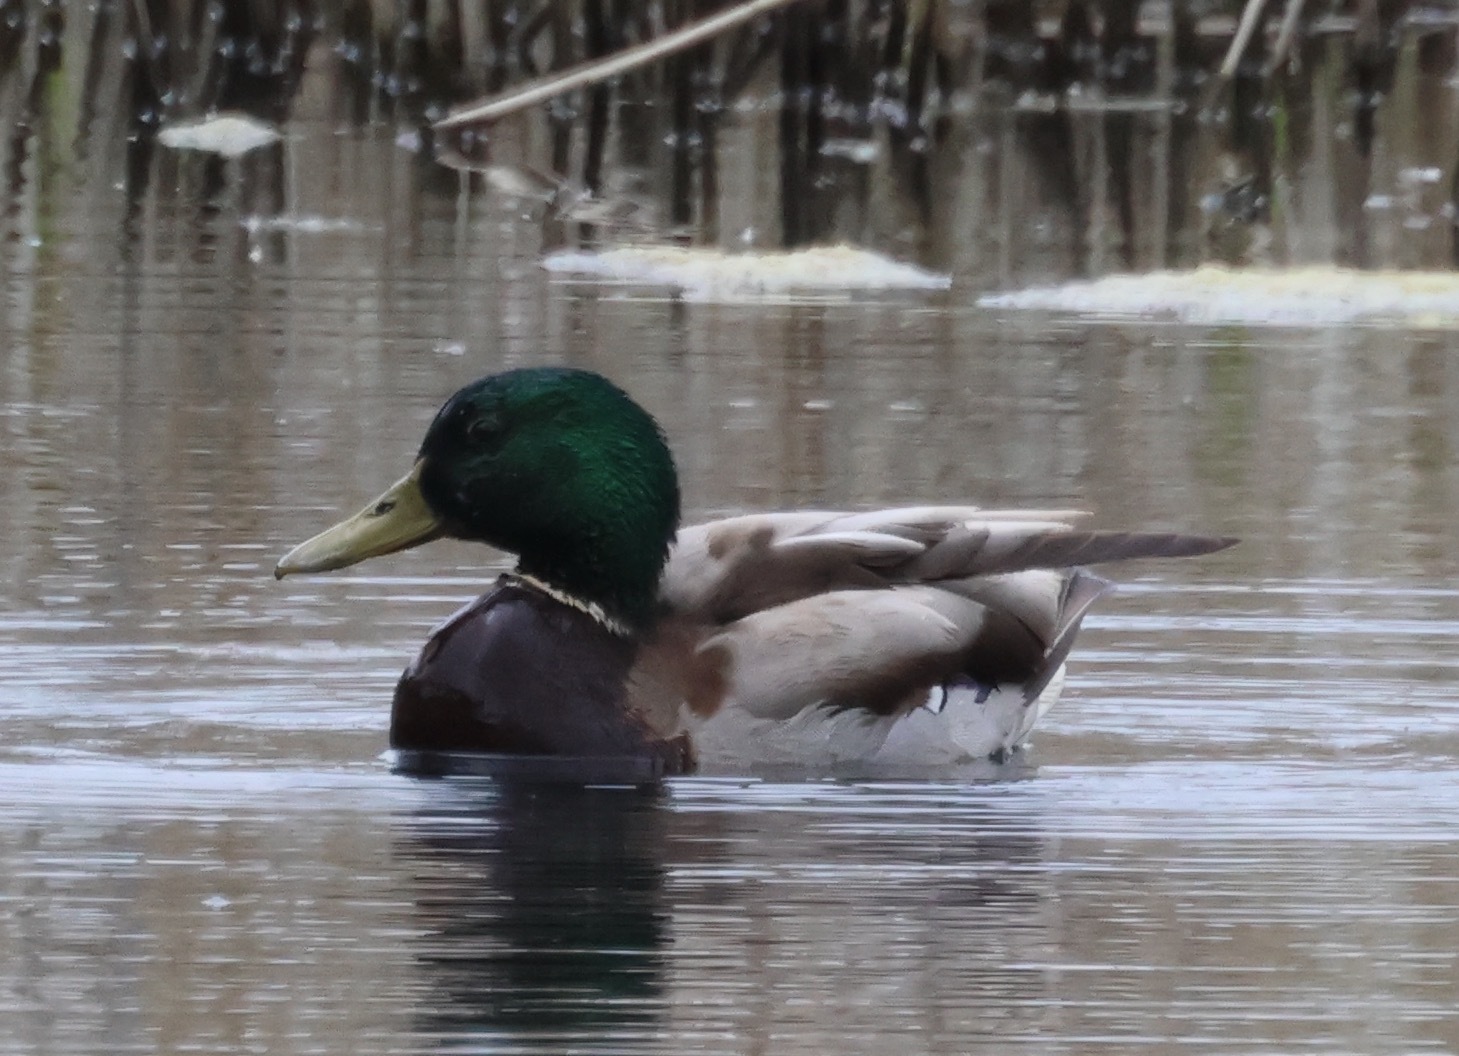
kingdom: Animalia
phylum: Chordata
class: Aves
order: Anseriformes
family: Anatidae
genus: Anas
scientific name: Anas platyrhynchos
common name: Mallard
